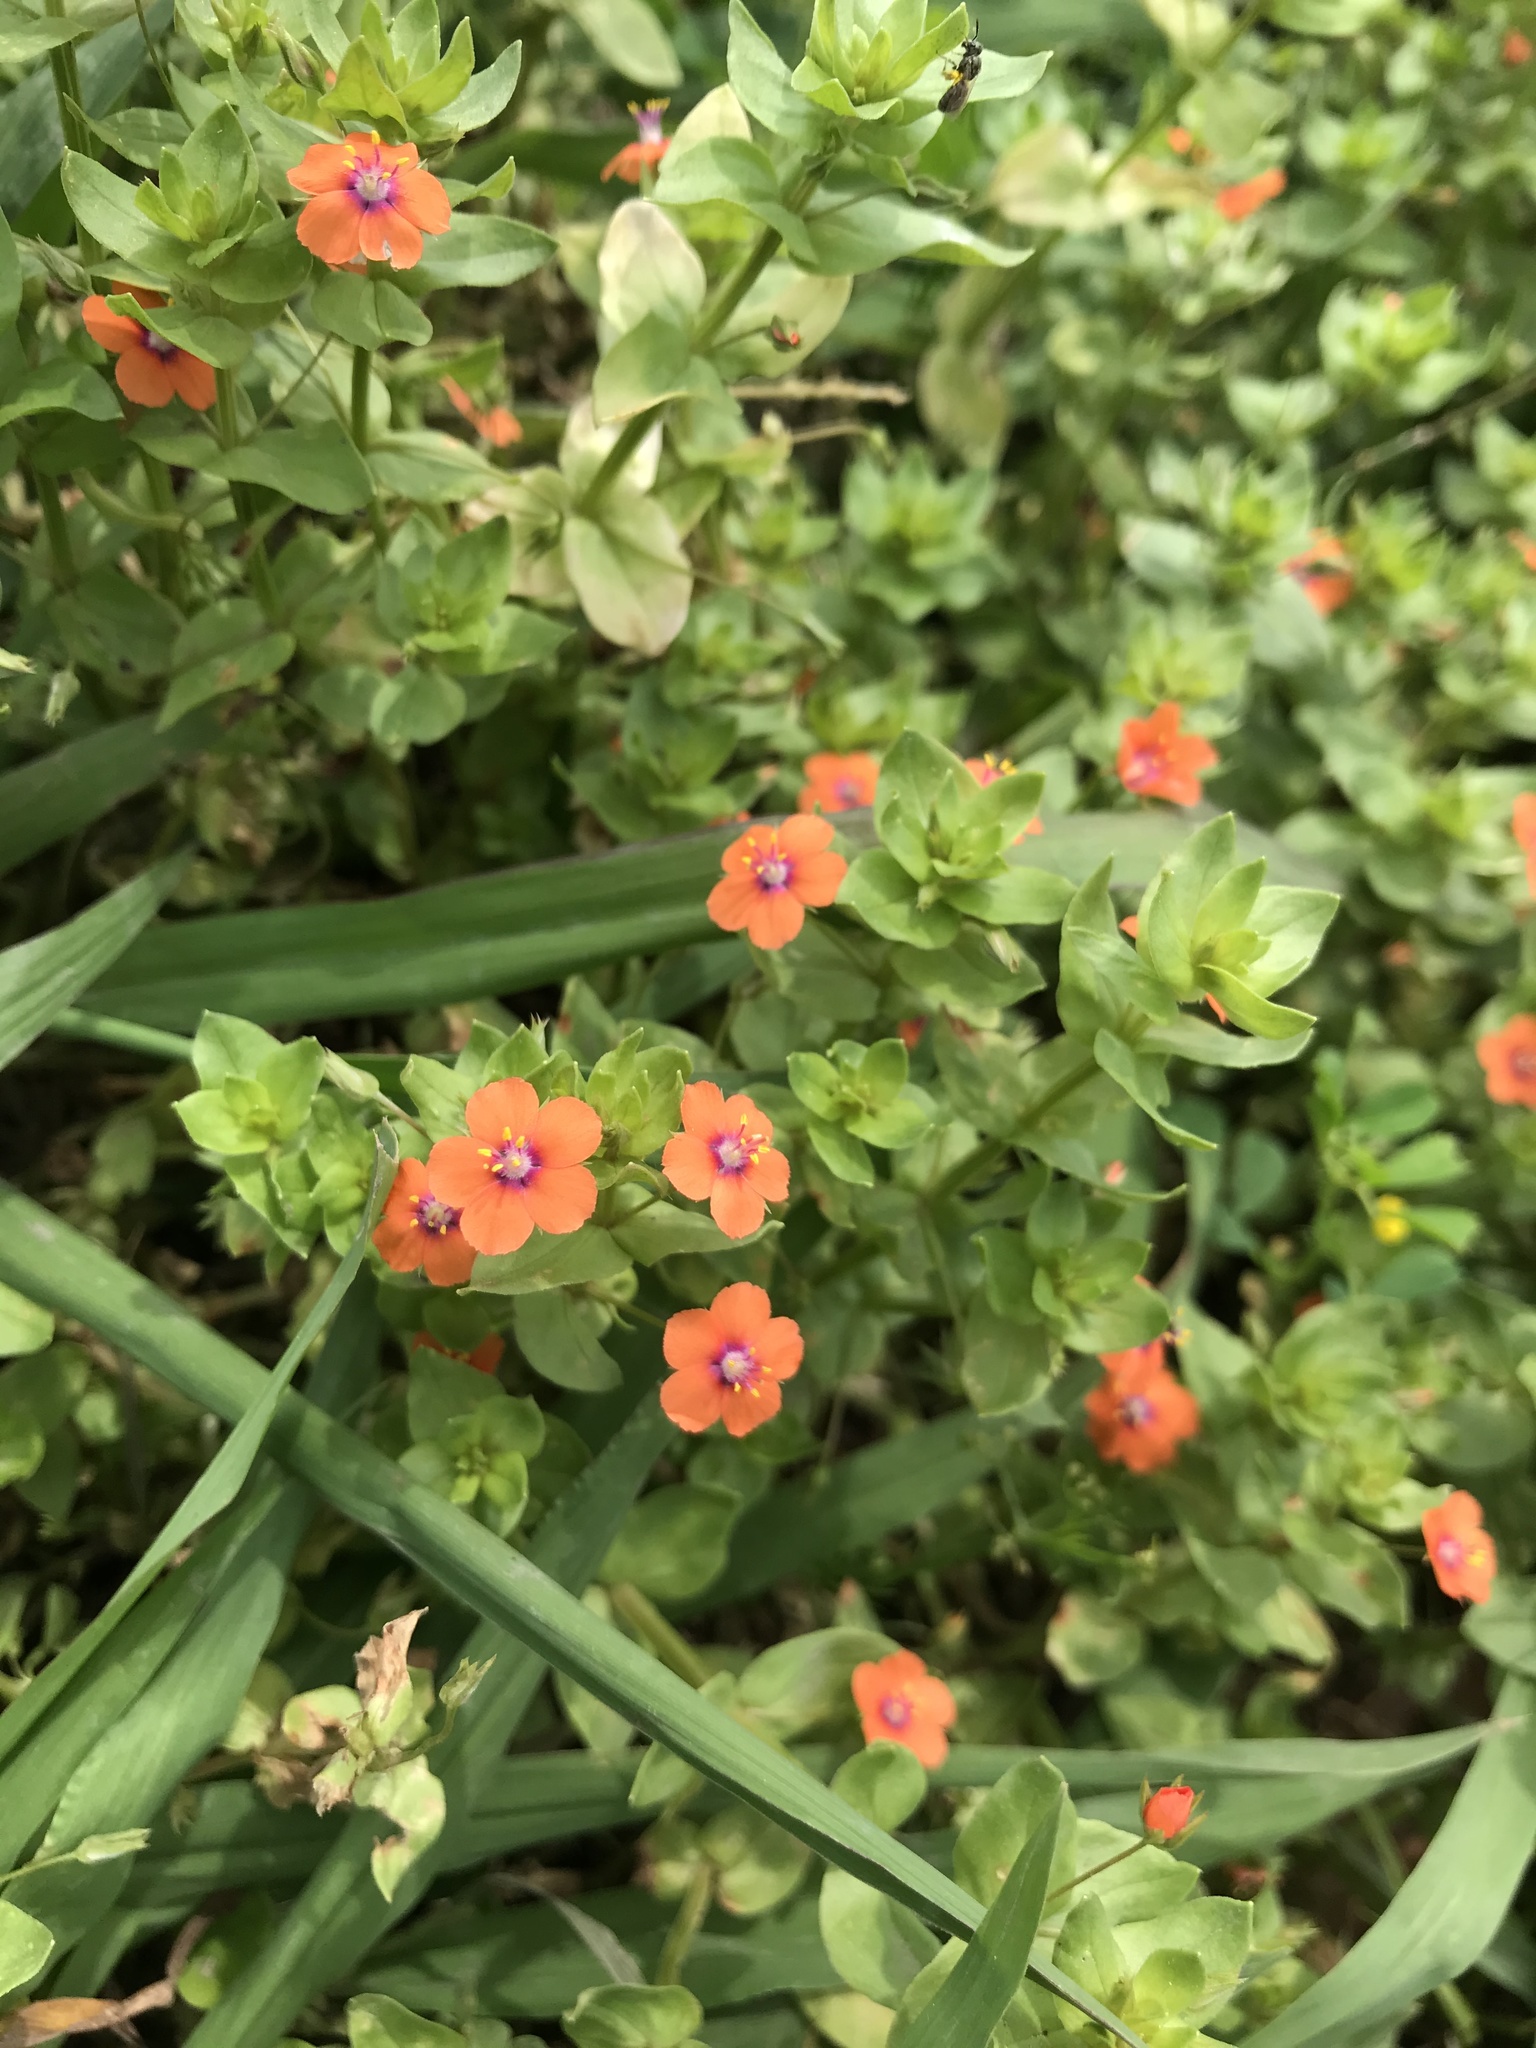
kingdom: Plantae
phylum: Tracheophyta
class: Magnoliopsida
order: Ericales
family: Primulaceae
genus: Lysimachia
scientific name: Lysimachia arvensis
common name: Scarlet pimpernel
